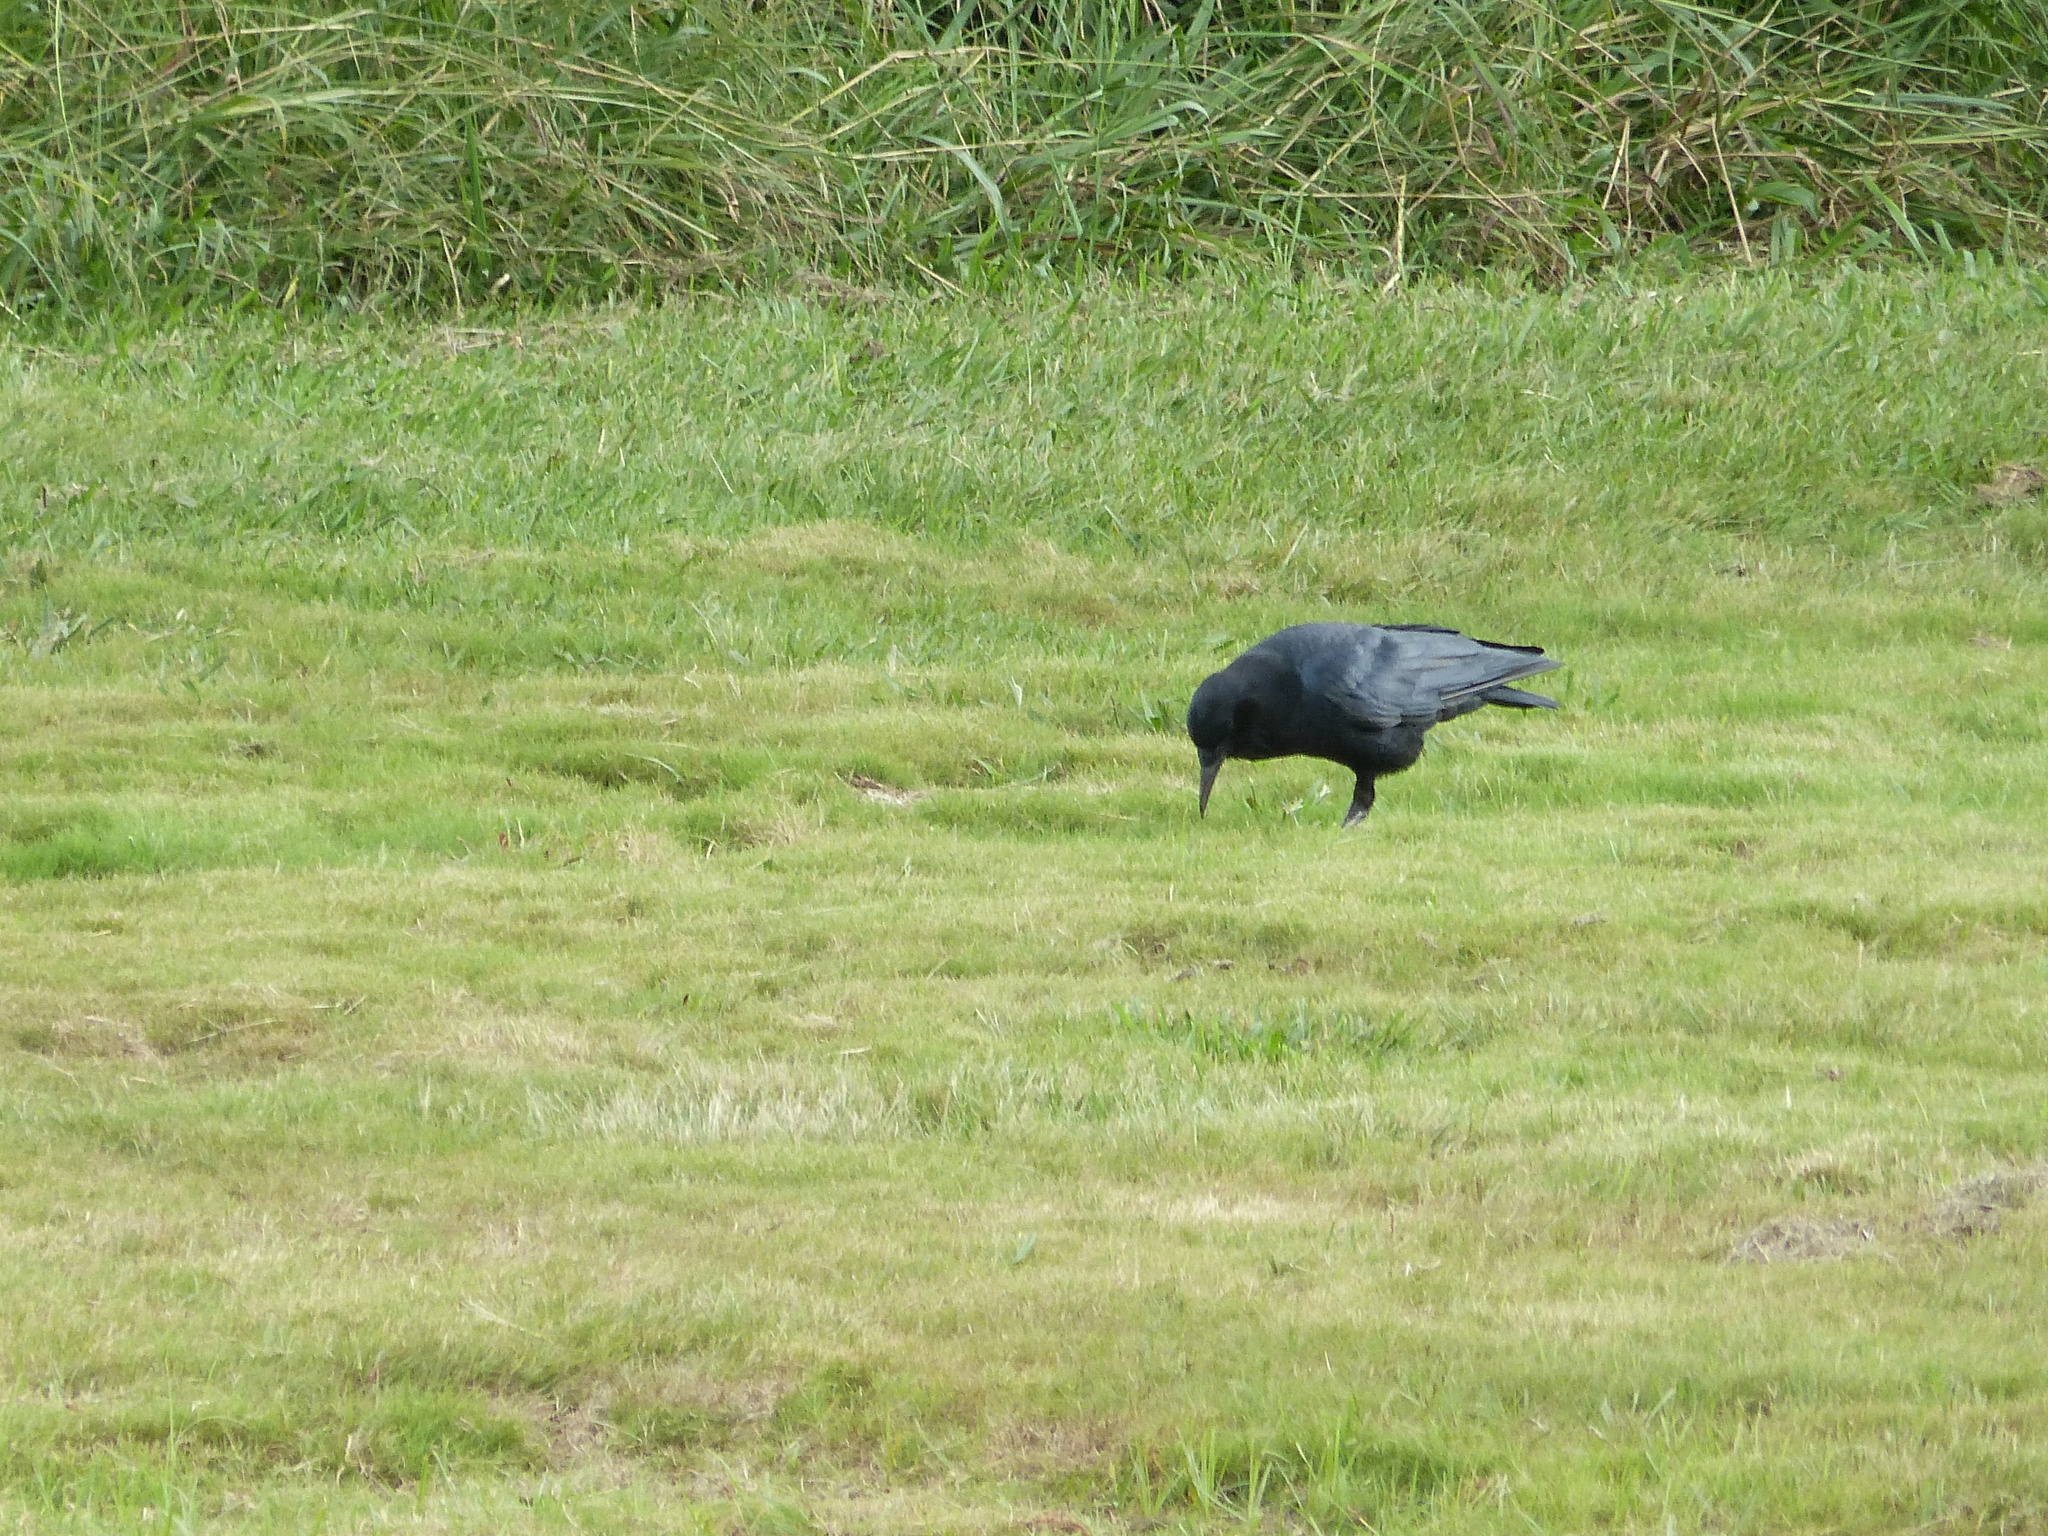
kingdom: Animalia
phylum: Chordata
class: Aves
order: Passeriformes
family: Corvidae
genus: Corvus
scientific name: Corvus capensis
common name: Cape crow
